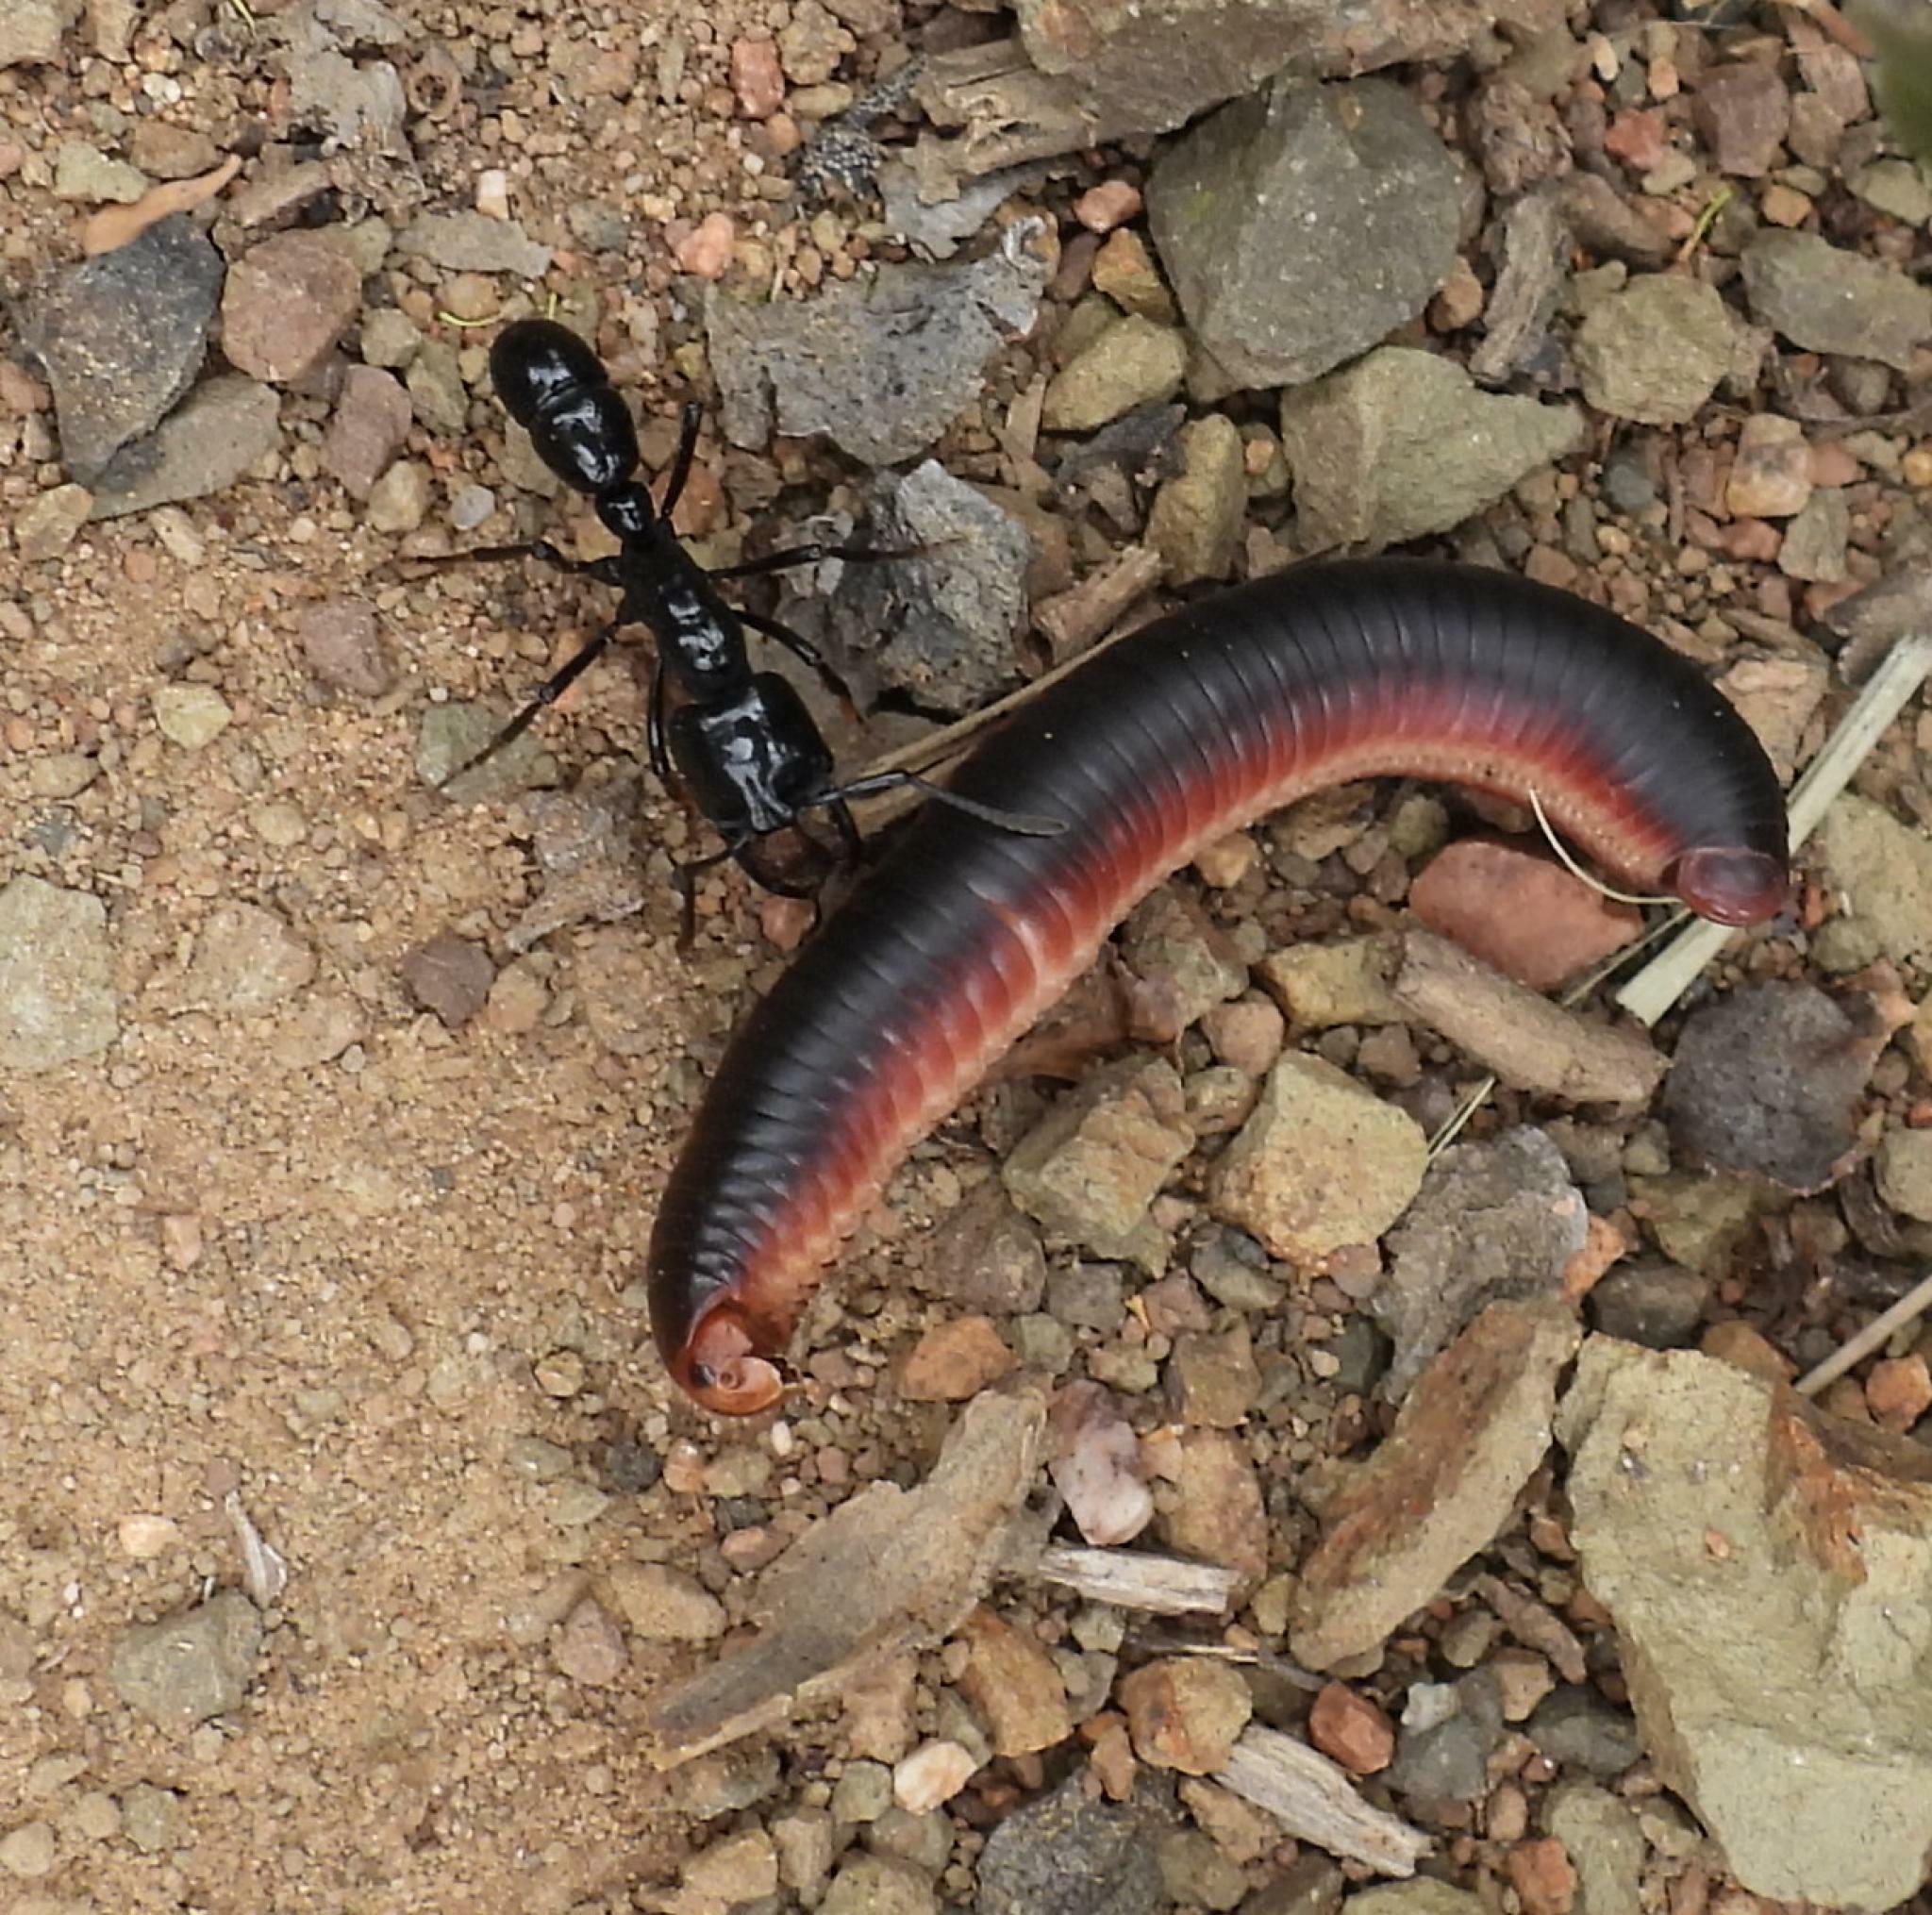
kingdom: Animalia
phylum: Arthropoda
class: Insecta
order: Hymenoptera
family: Formicidae
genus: Plectroctena
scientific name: Plectroctena mandibularis
